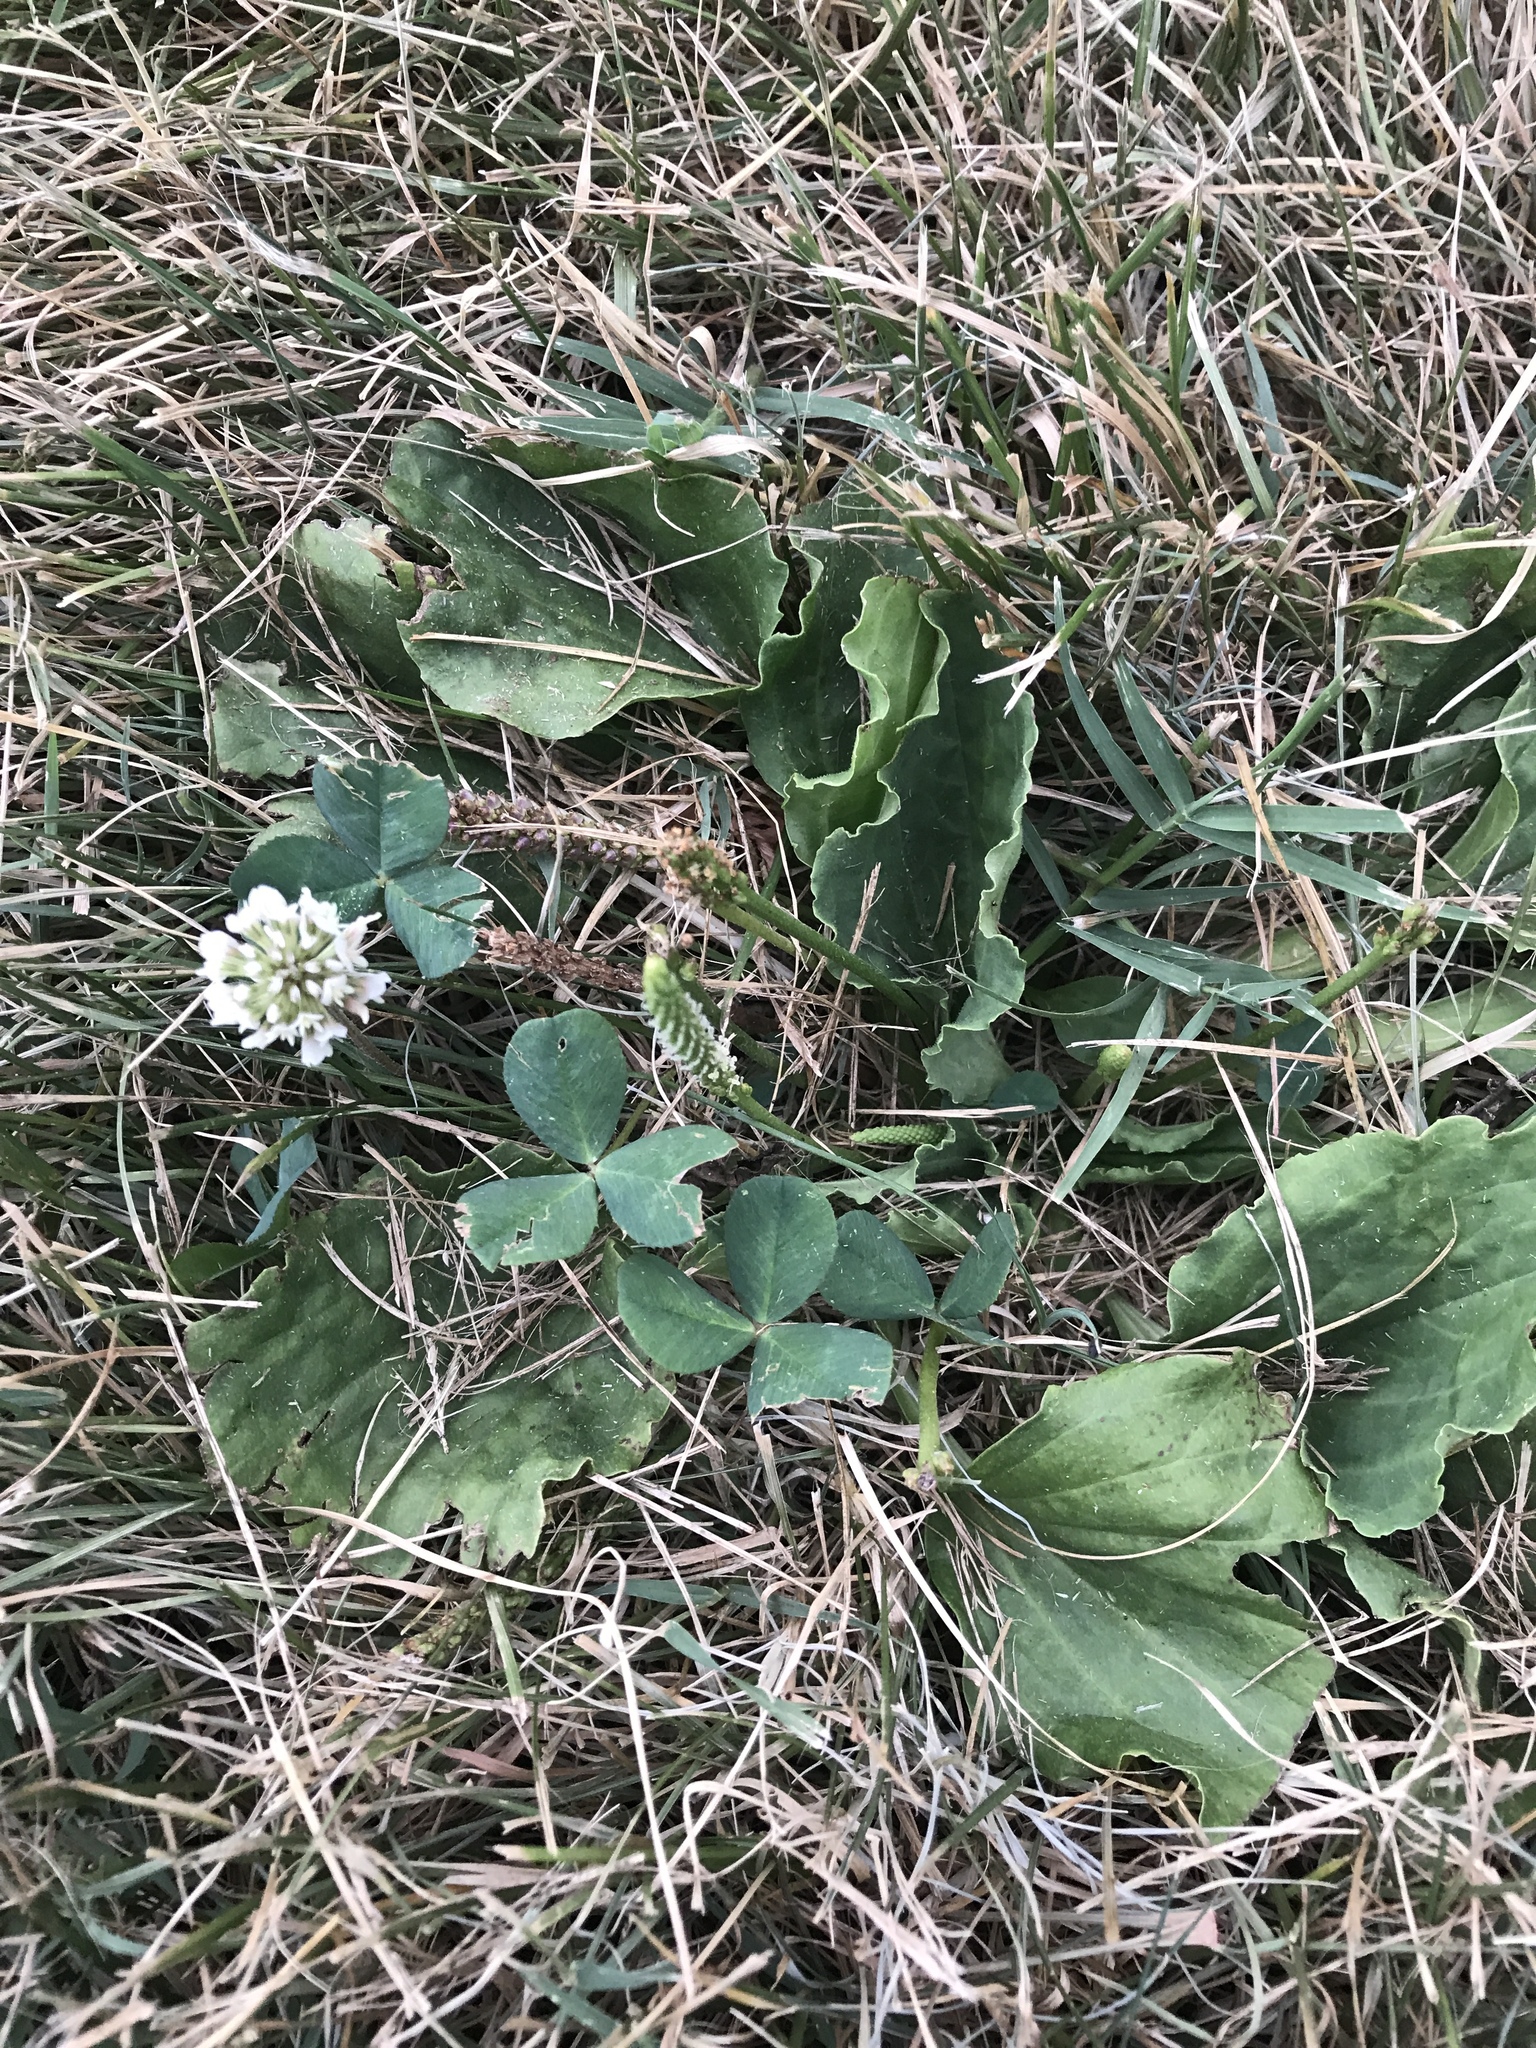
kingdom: Plantae
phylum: Tracheophyta
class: Magnoliopsida
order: Fabales
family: Fabaceae
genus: Trifolium
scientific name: Trifolium repens
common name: White clover
